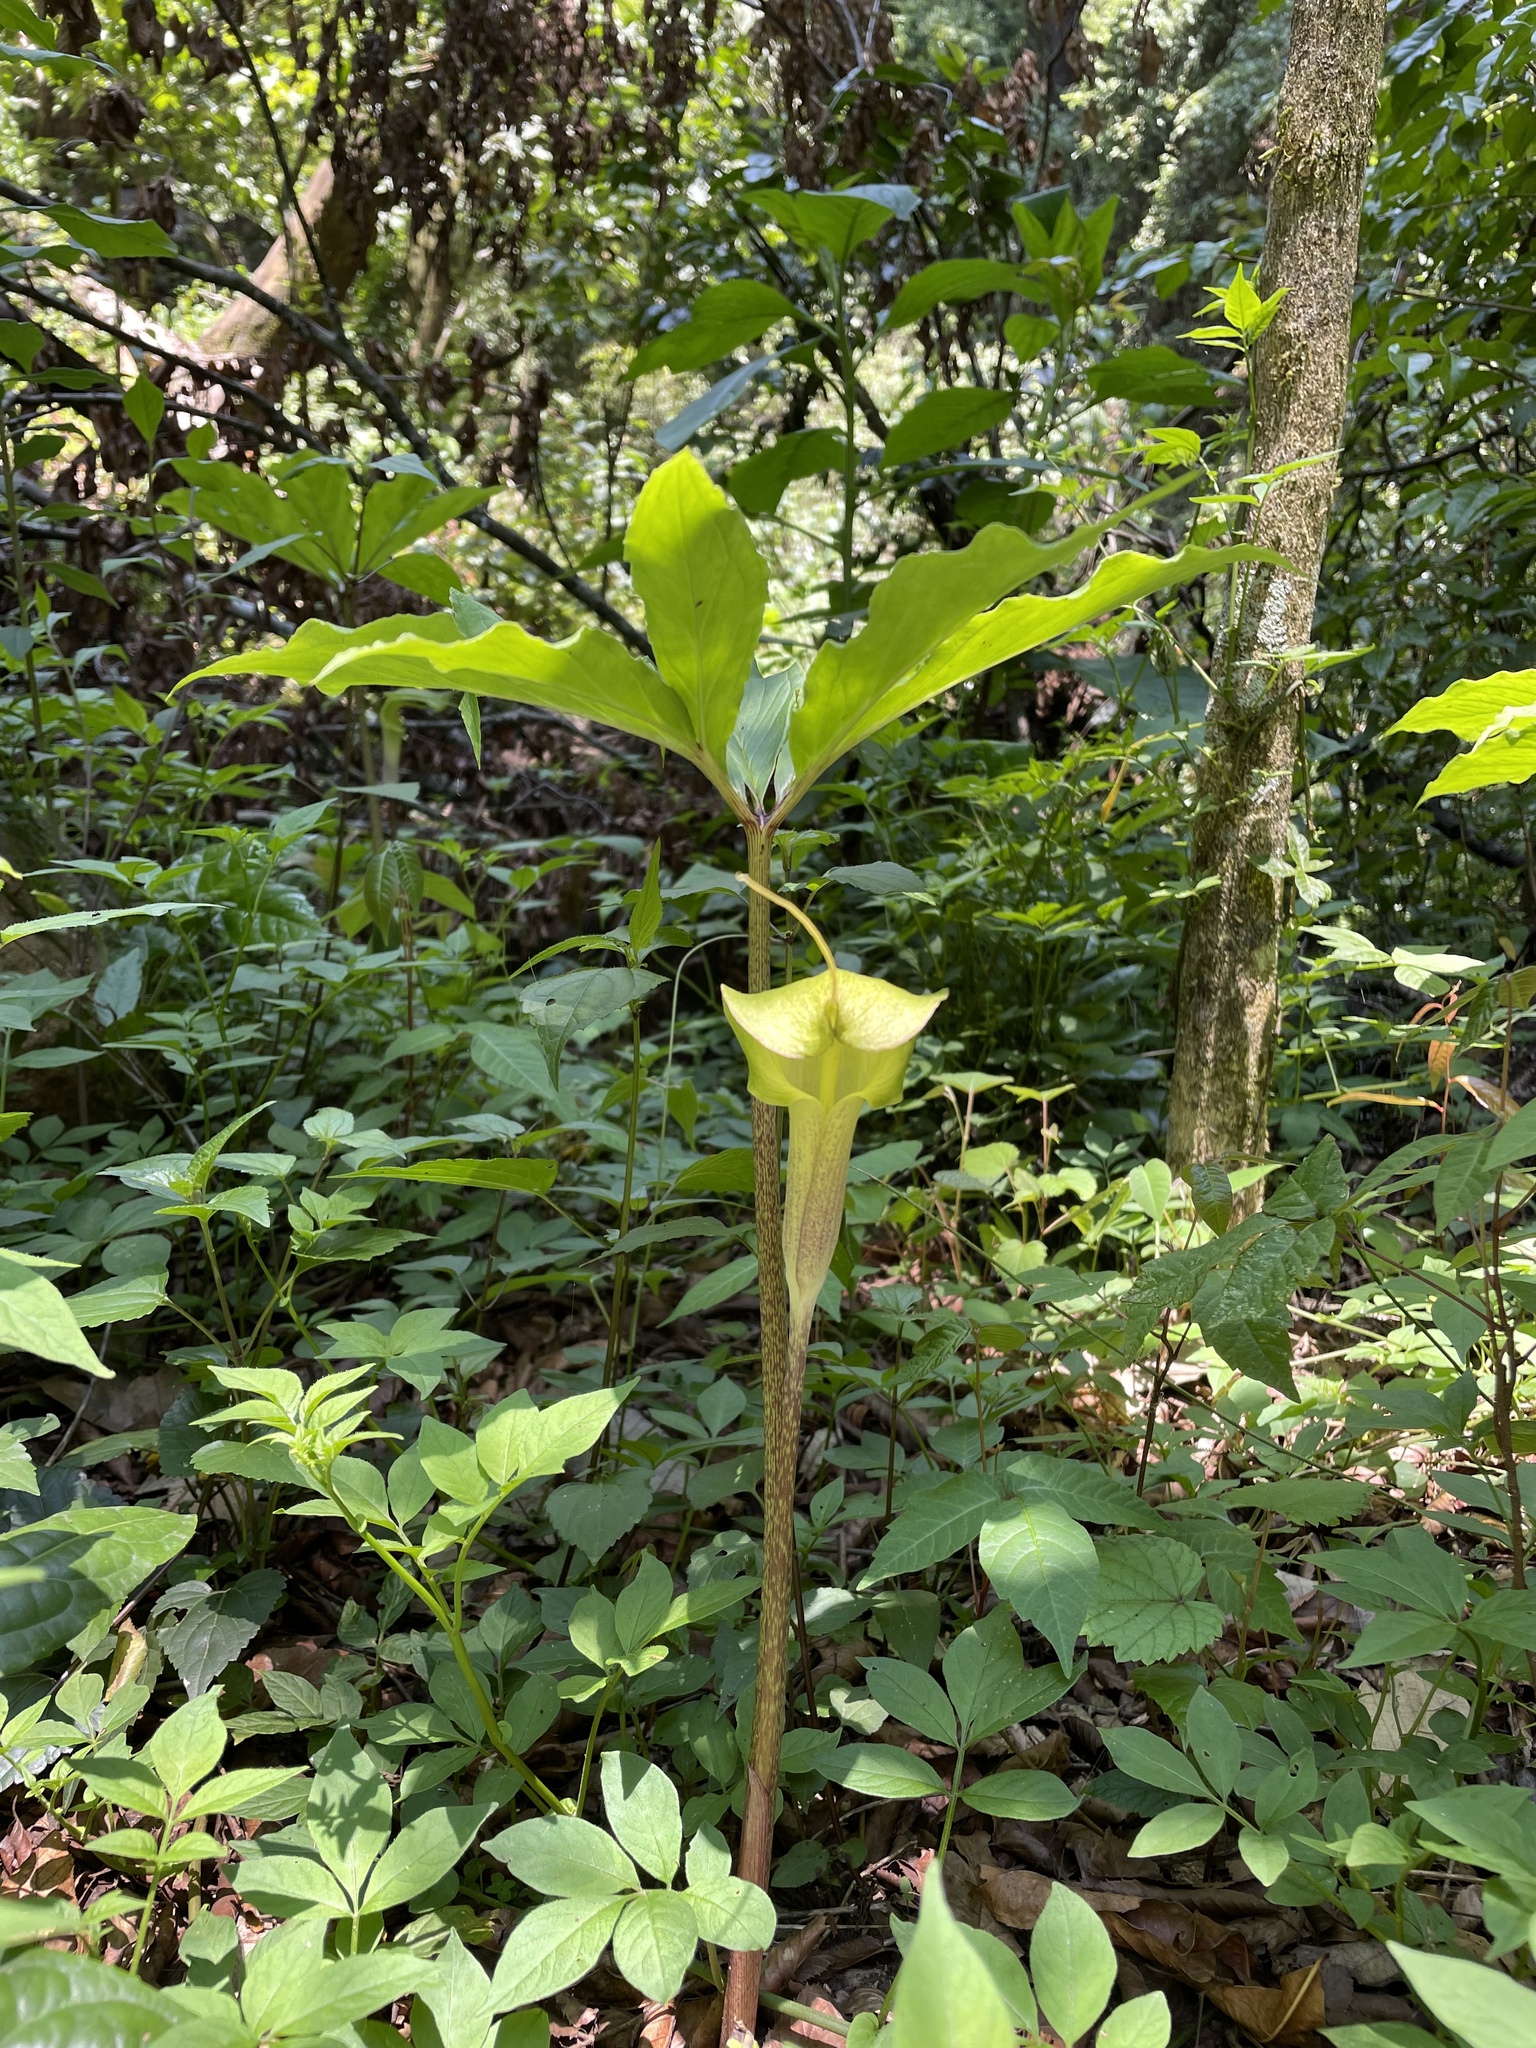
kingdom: Plantae
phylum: Tracheophyta
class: Liliopsida
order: Alismatales
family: Araceae
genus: Arisaema
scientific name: Arisaema macrospathum
